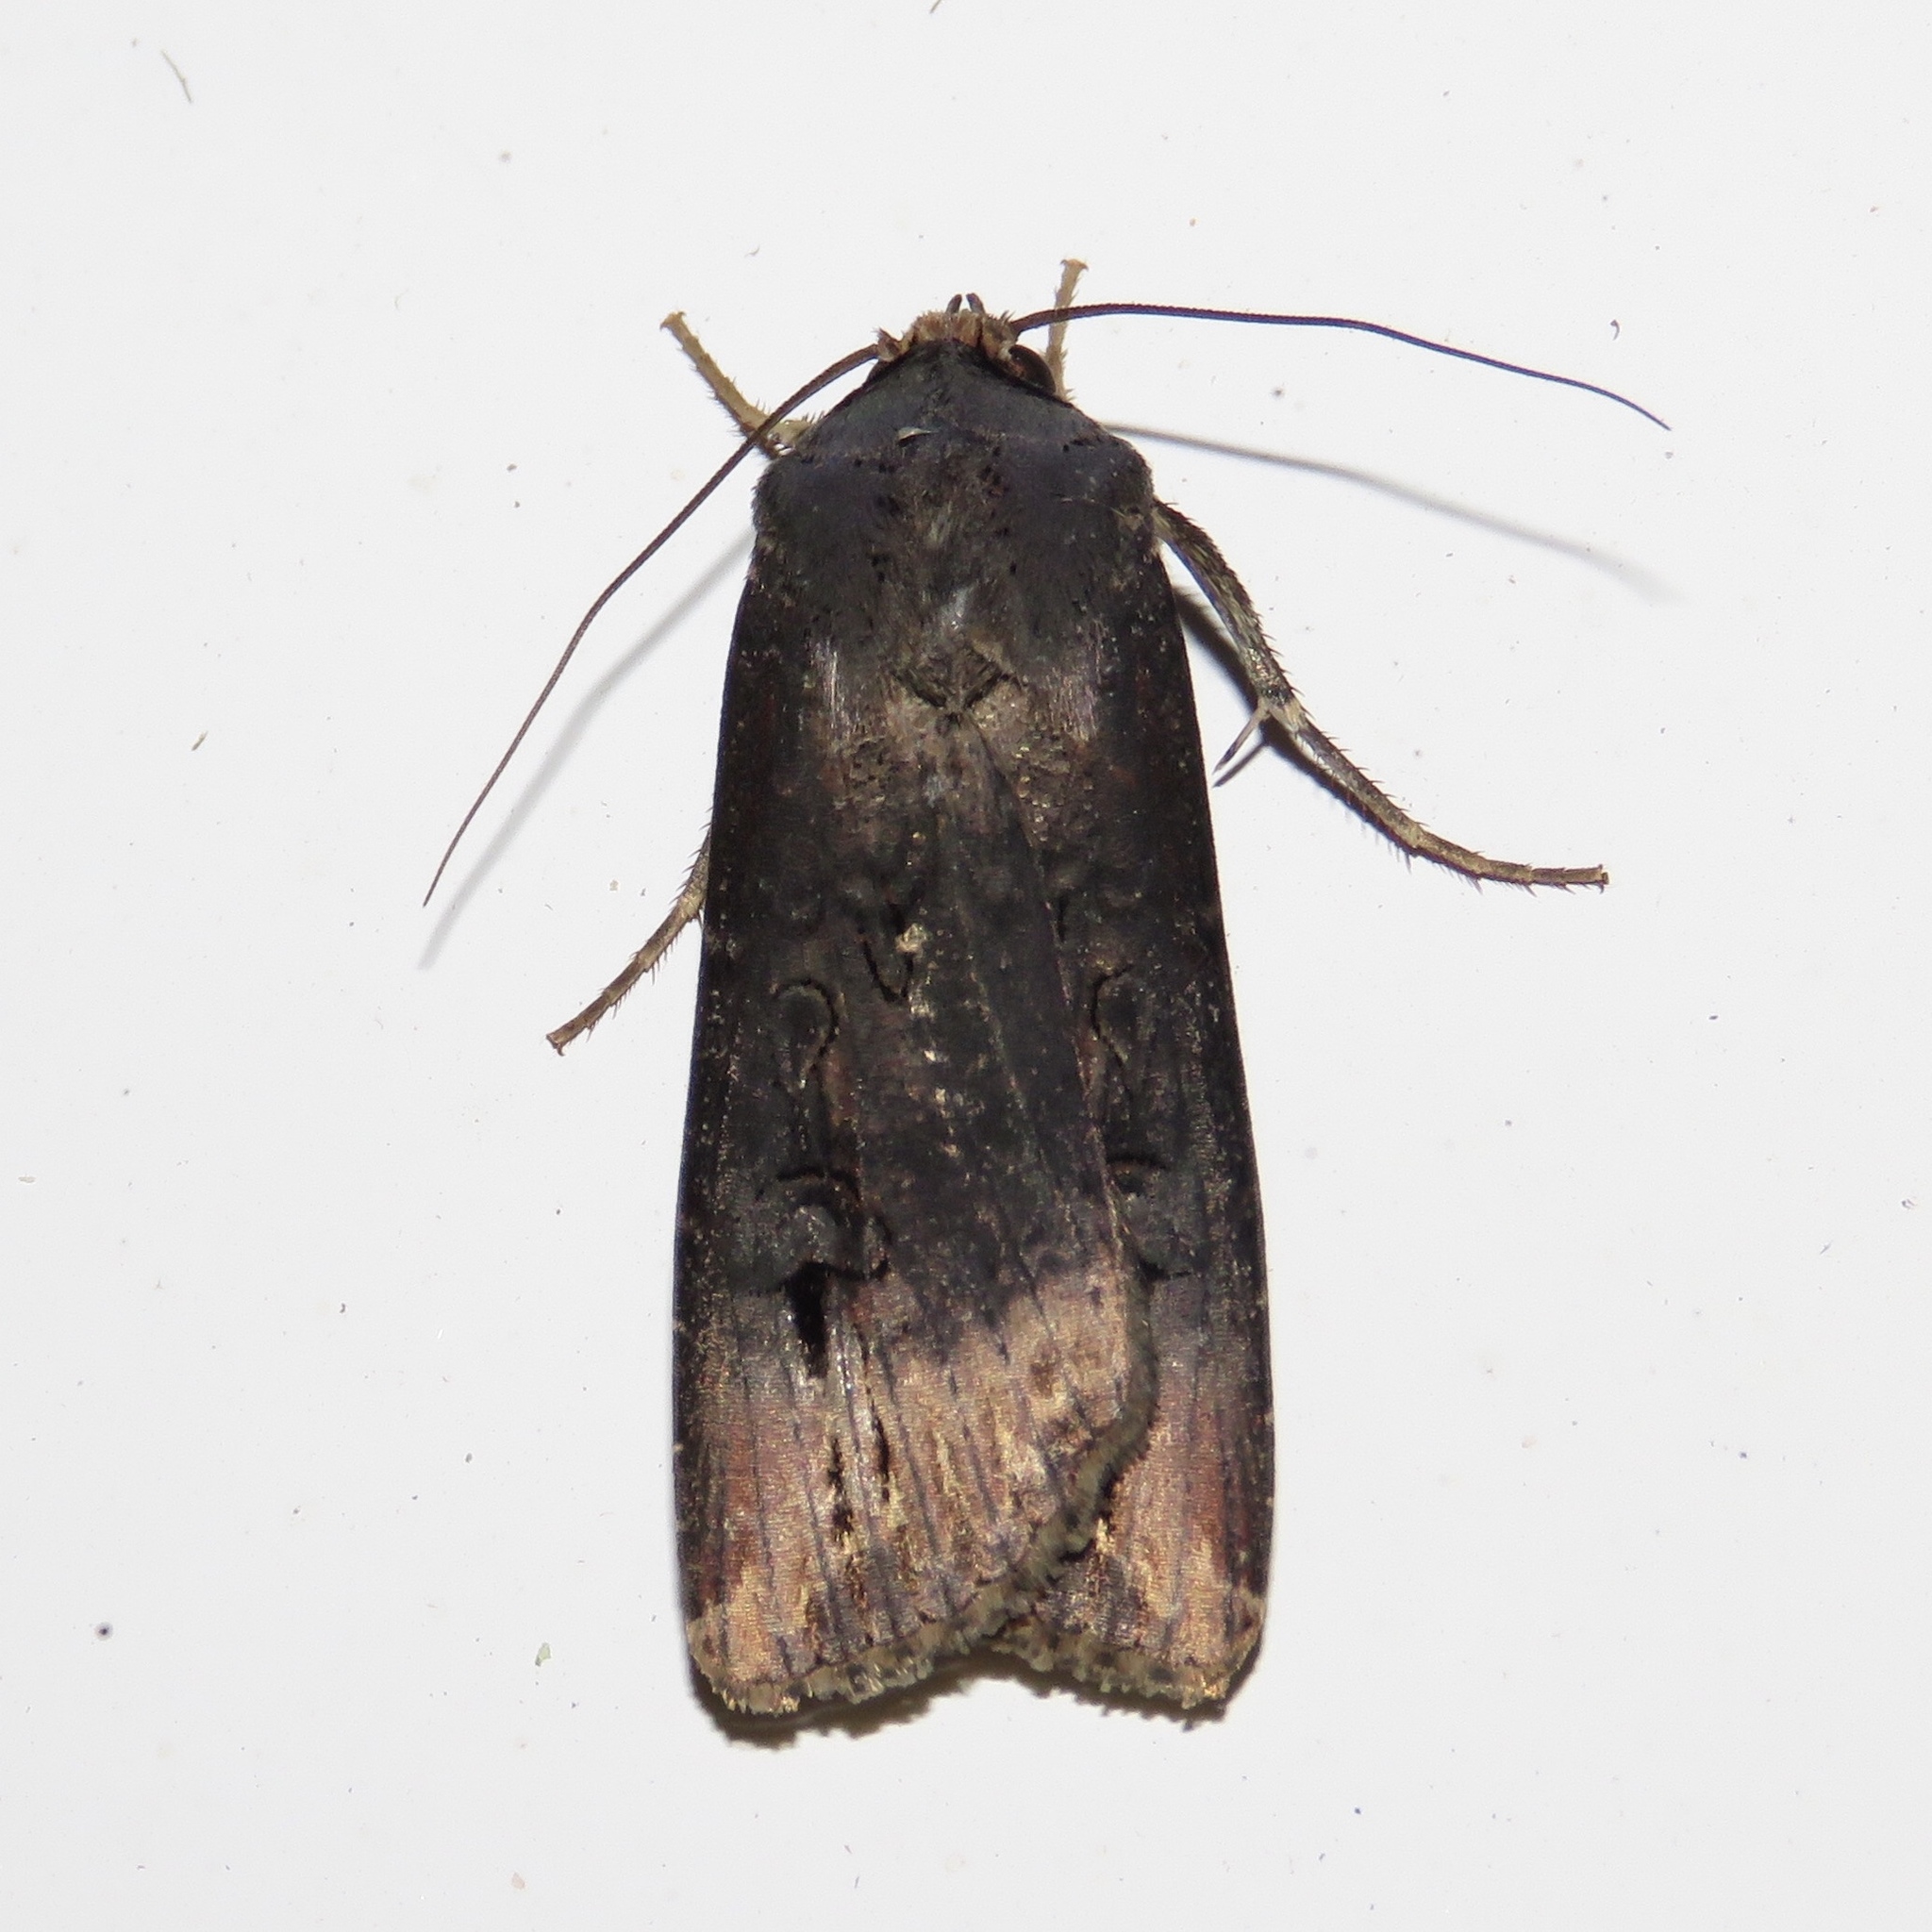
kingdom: Animalia
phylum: Arthropoda
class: Insecta
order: Lepidoptera
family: Noctuidae
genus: Agrotis
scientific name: Agrotis ipsilon
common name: Dark sword-grass
